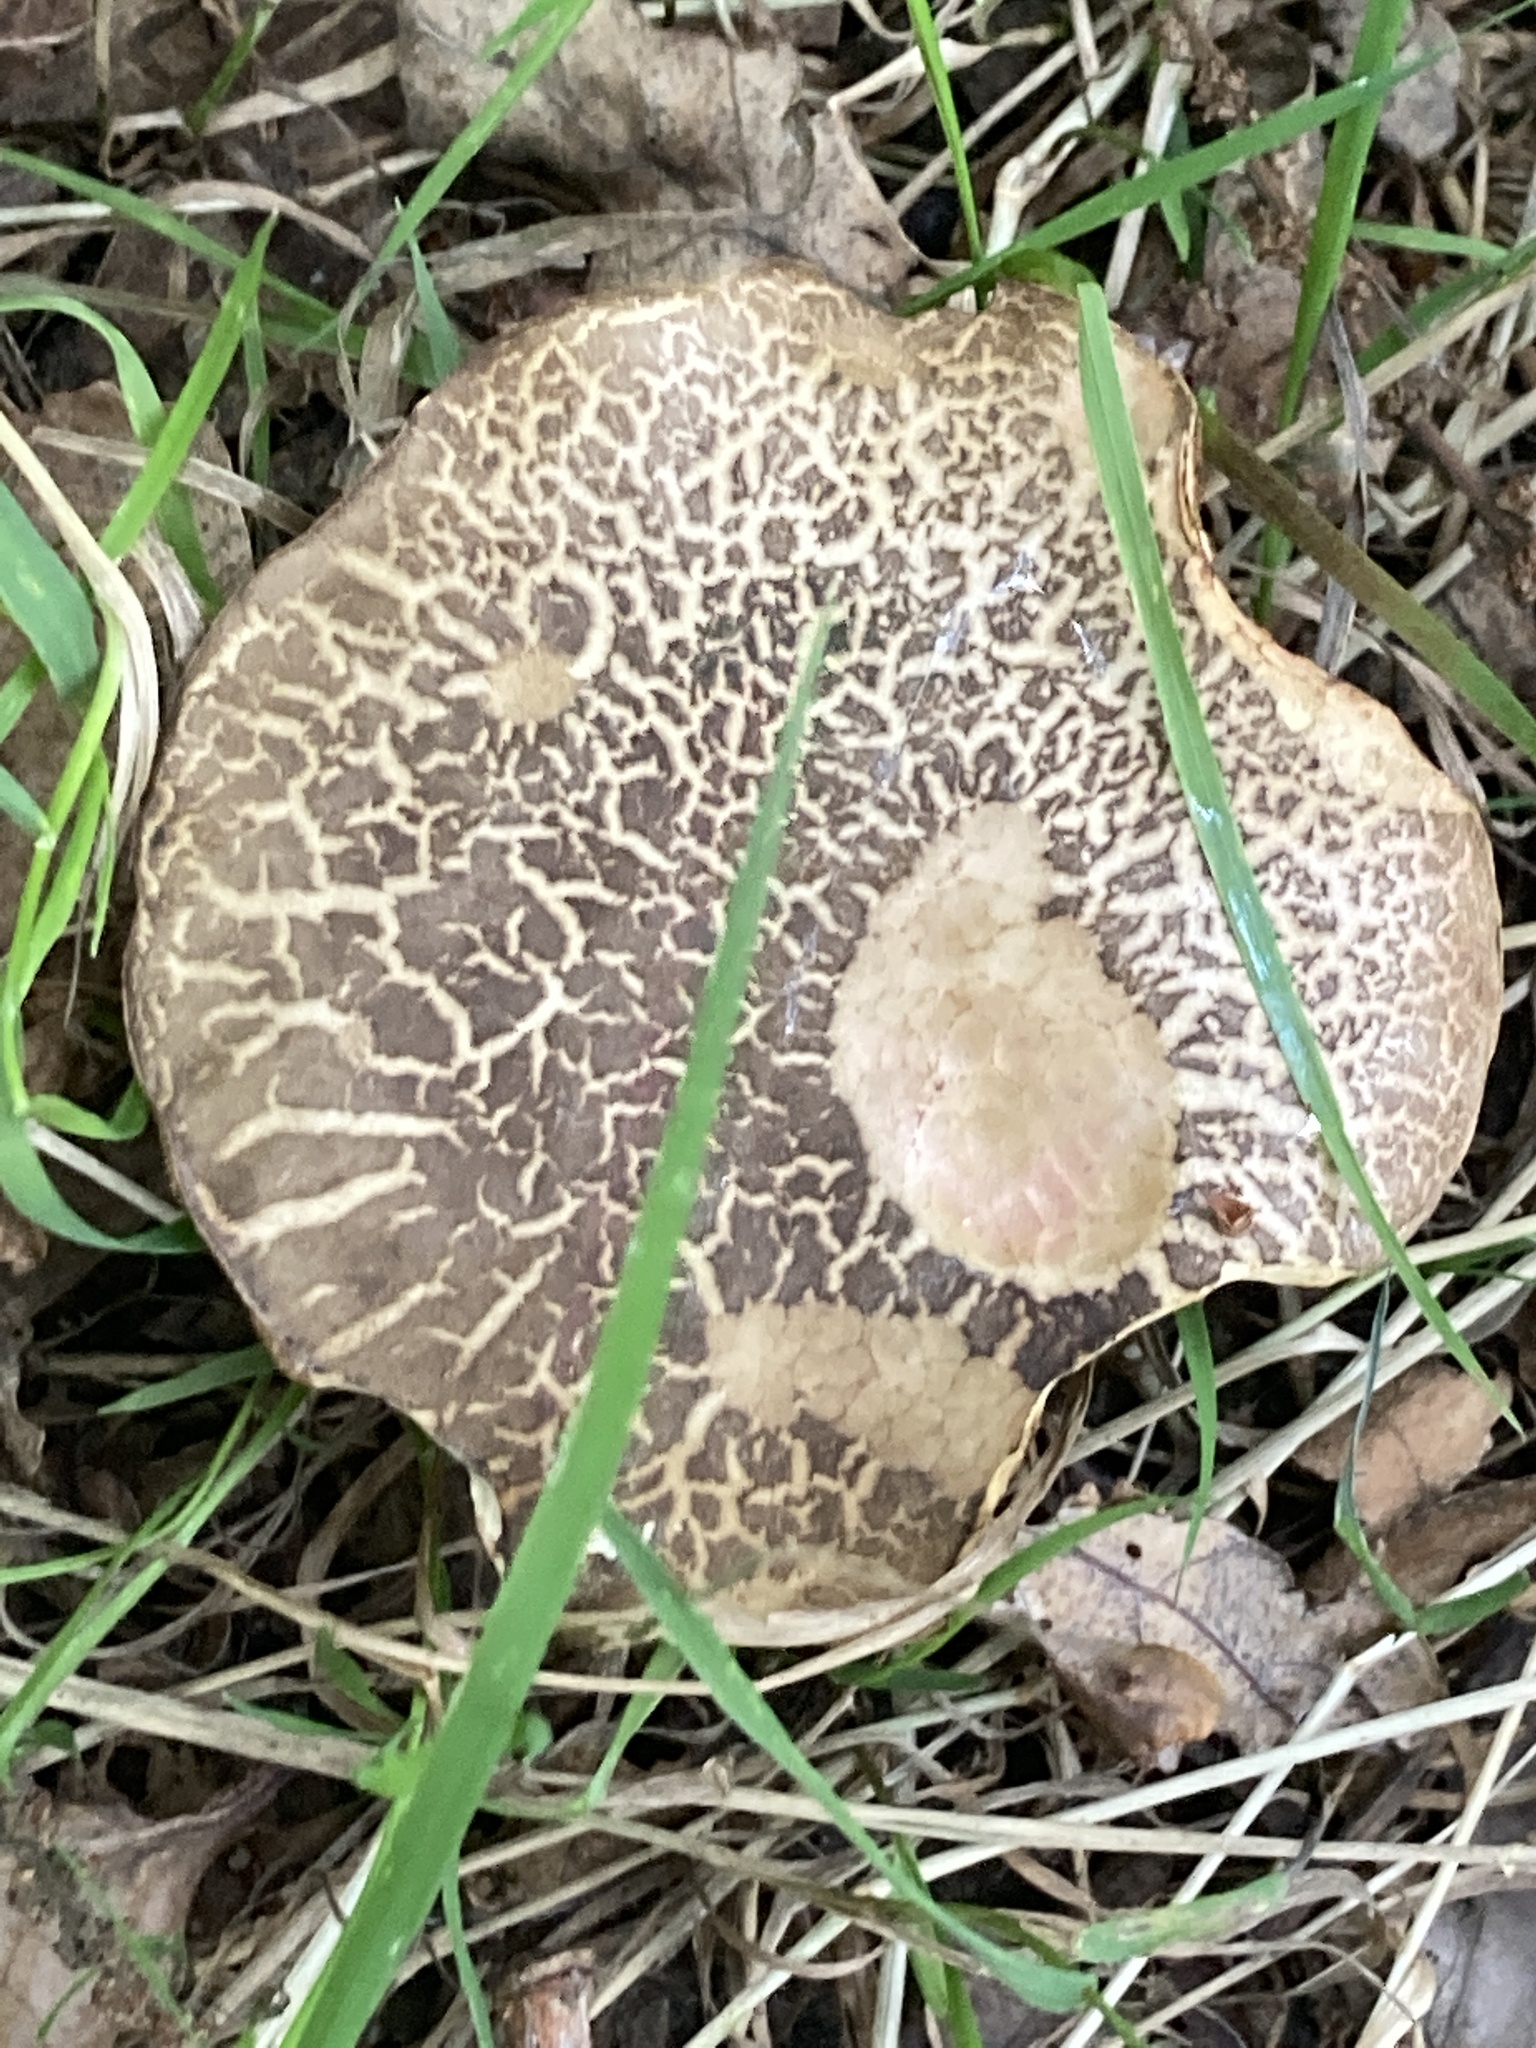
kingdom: Fungi
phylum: Basidiomycota
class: Agaricomycetes
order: Boletales
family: Boletaceae
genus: Xerocomellus
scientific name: Xerocomellus chrysenteron
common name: Red-cracking bolete
